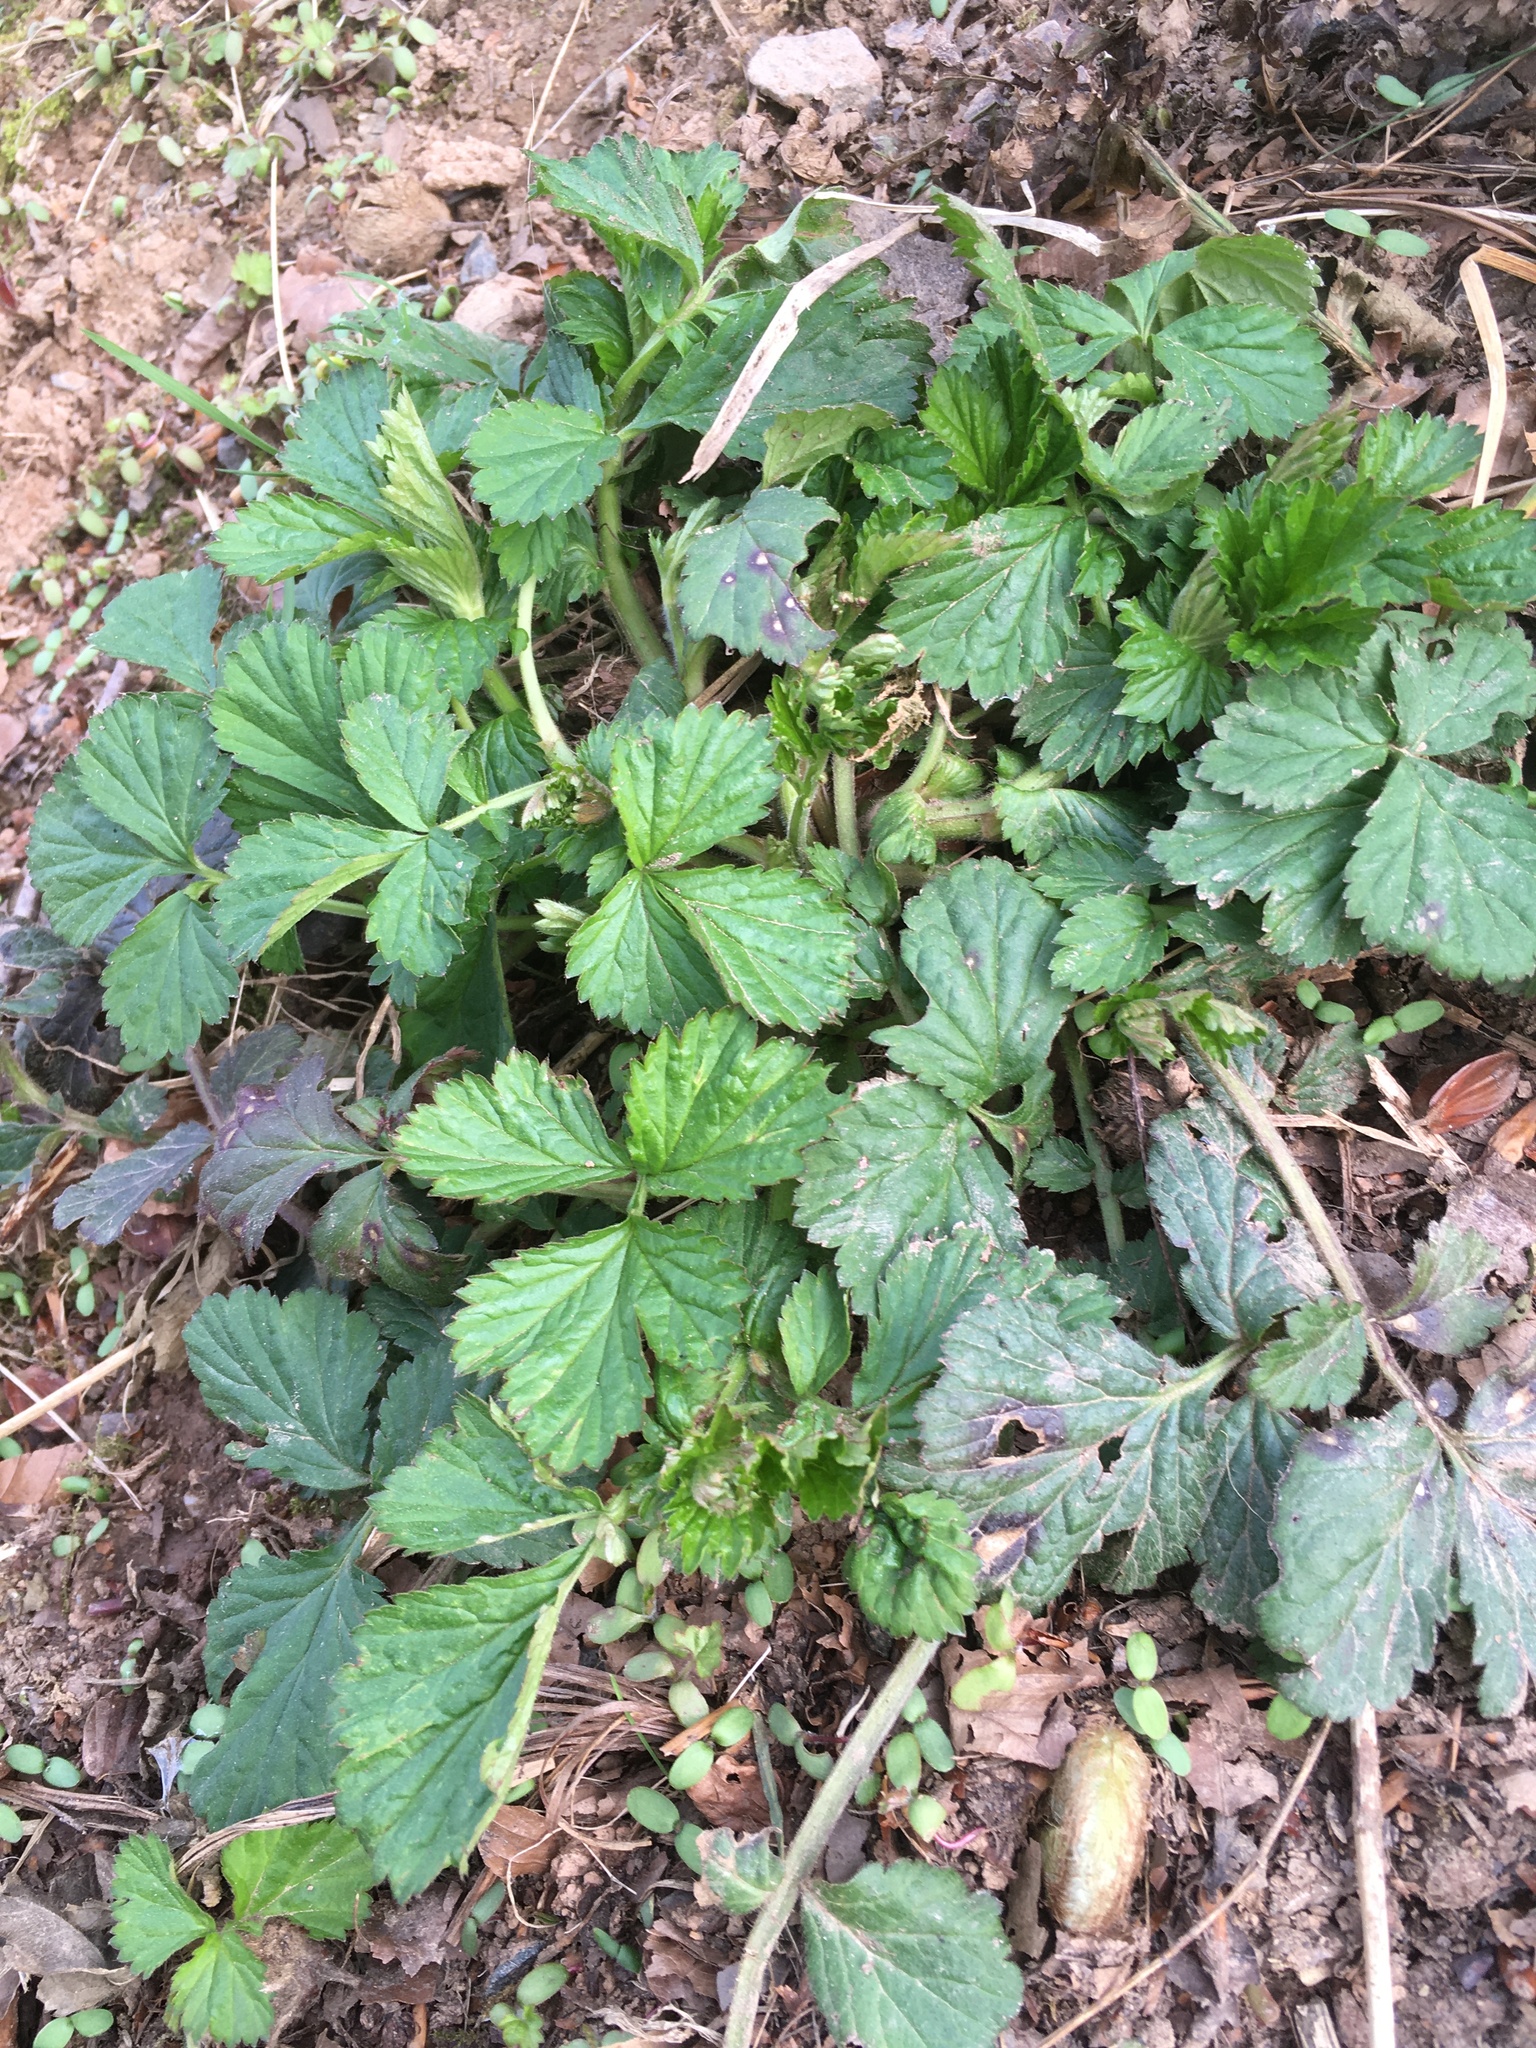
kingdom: Plantae
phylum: Tracheophyta
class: Magnoliopsida
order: Rosales
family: Rosaceae
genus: Geum
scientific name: Geum urbanum
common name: Wood avens
